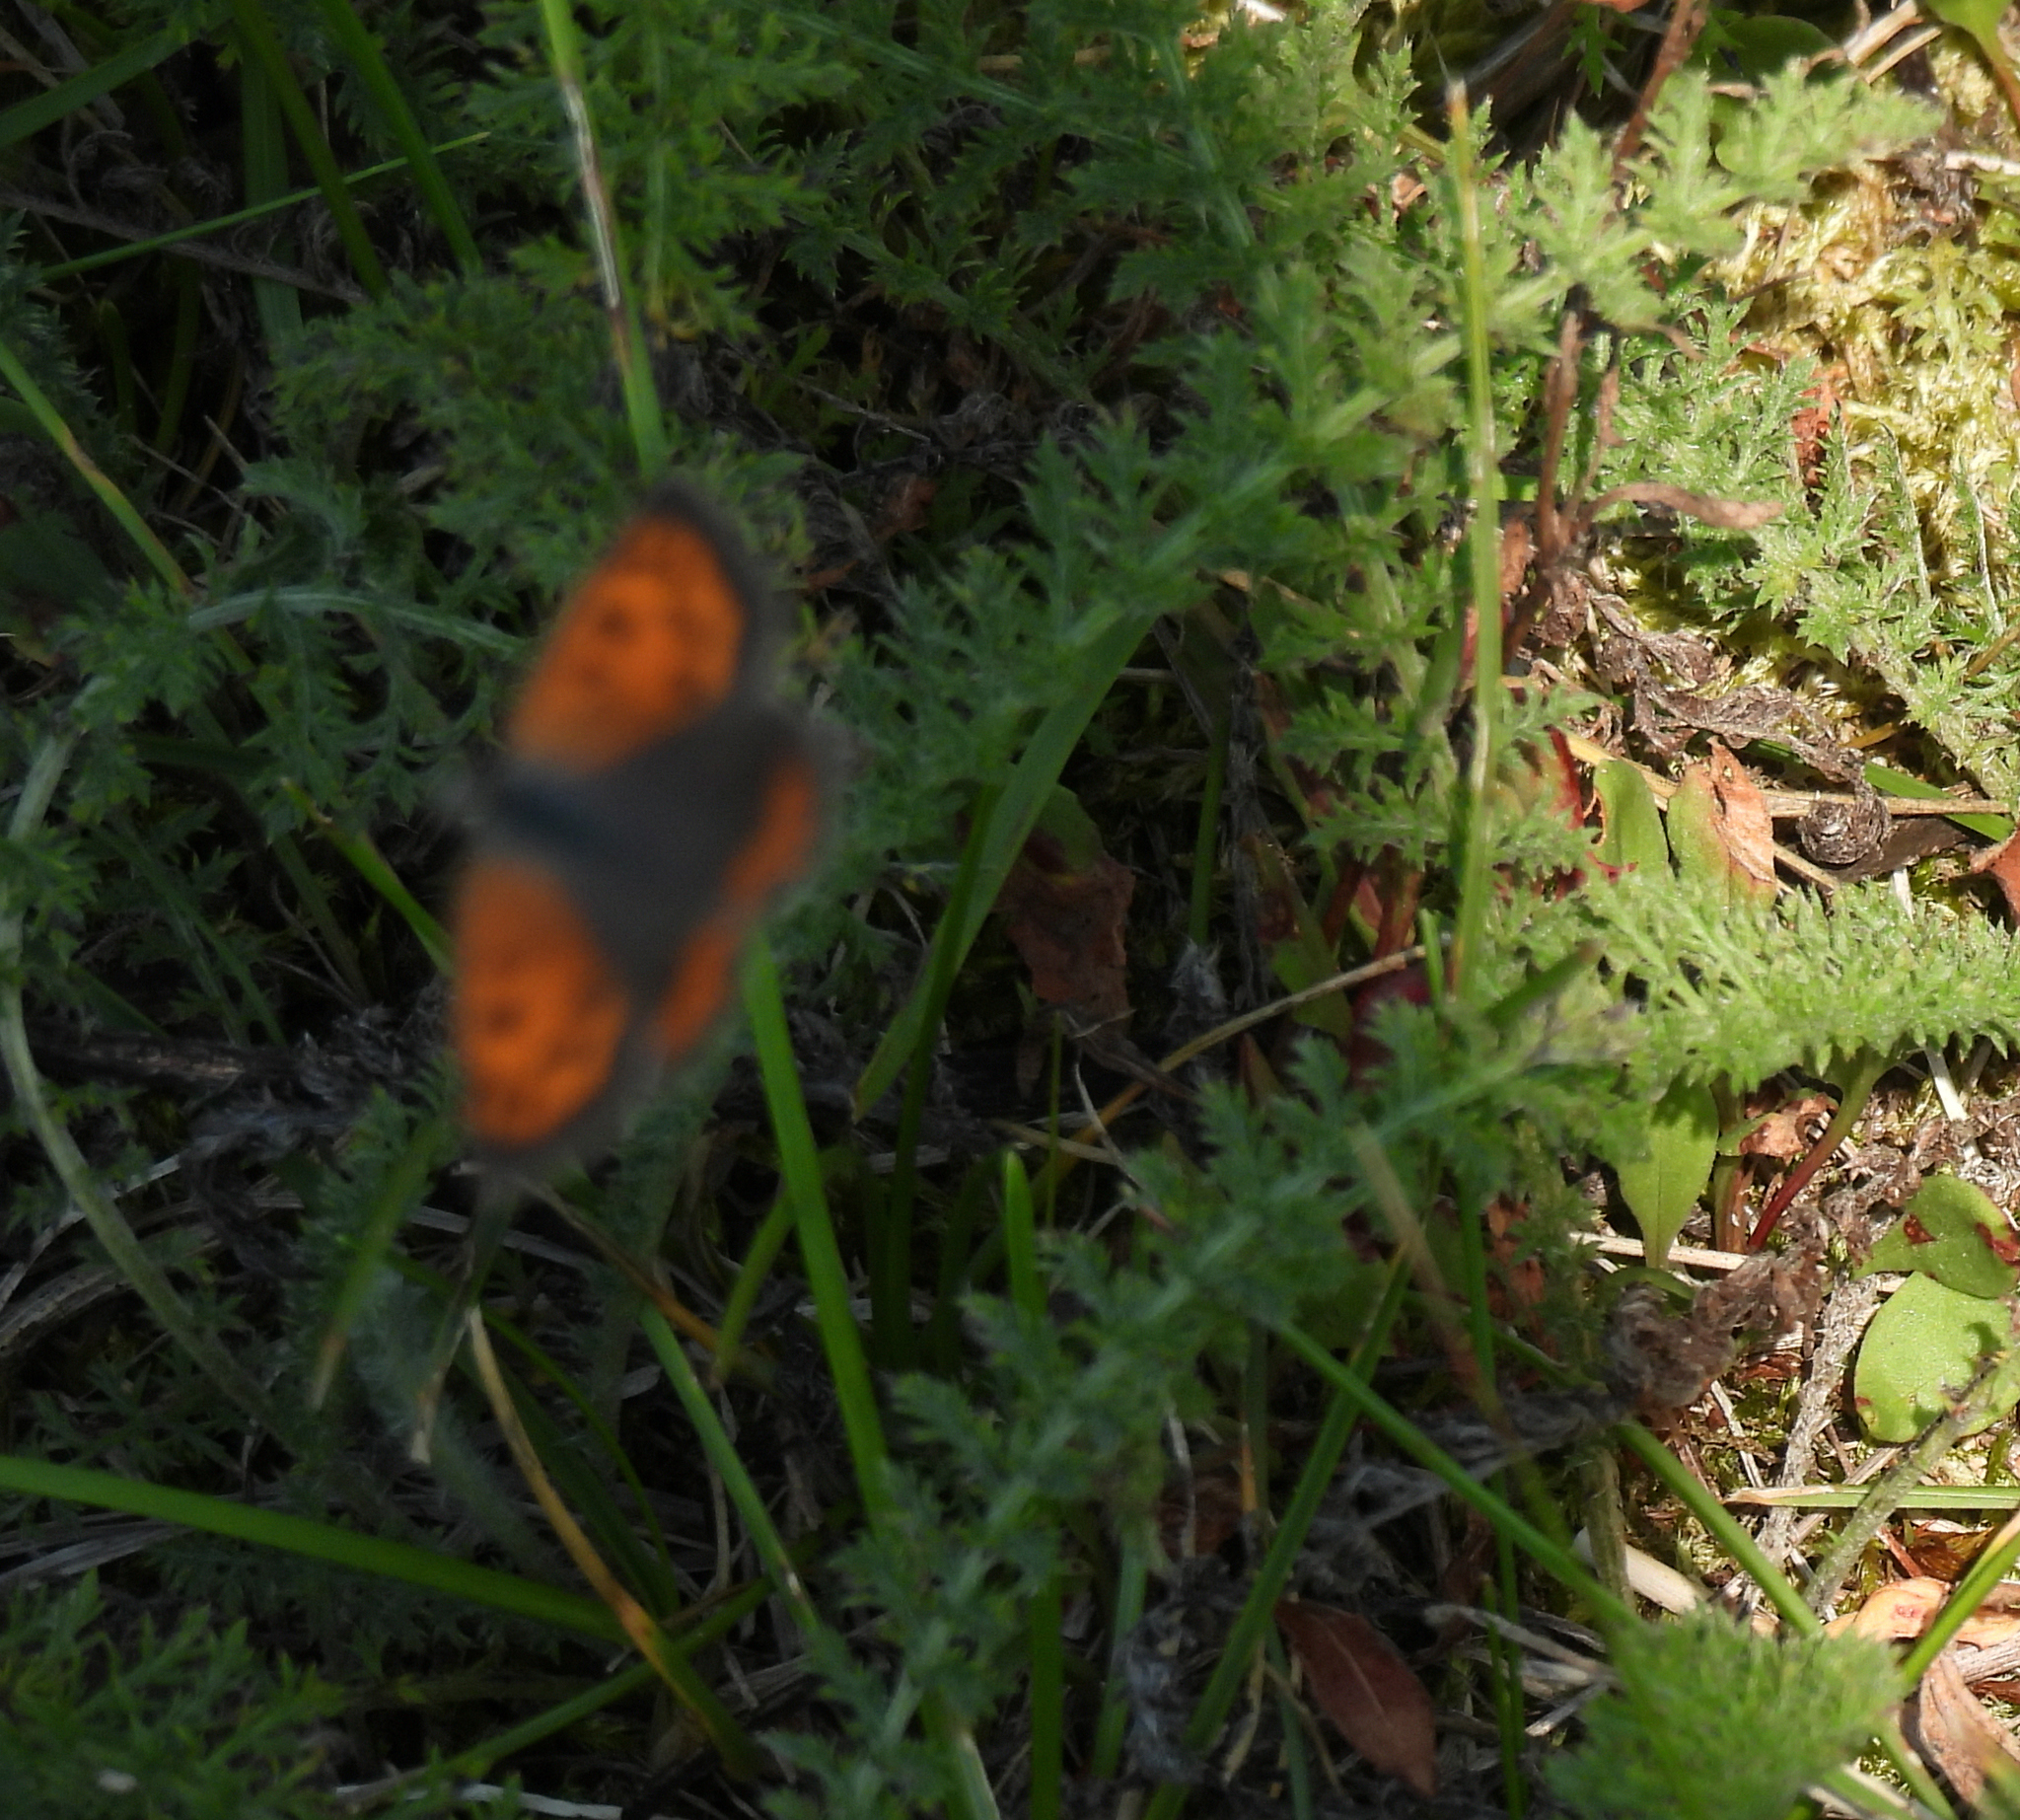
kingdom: Animalia
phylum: Arthropoda
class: Insecta
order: Lepidoptera
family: Lycaenidae
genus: Lycaena
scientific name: Lycaena hypophlaeas
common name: American copper
